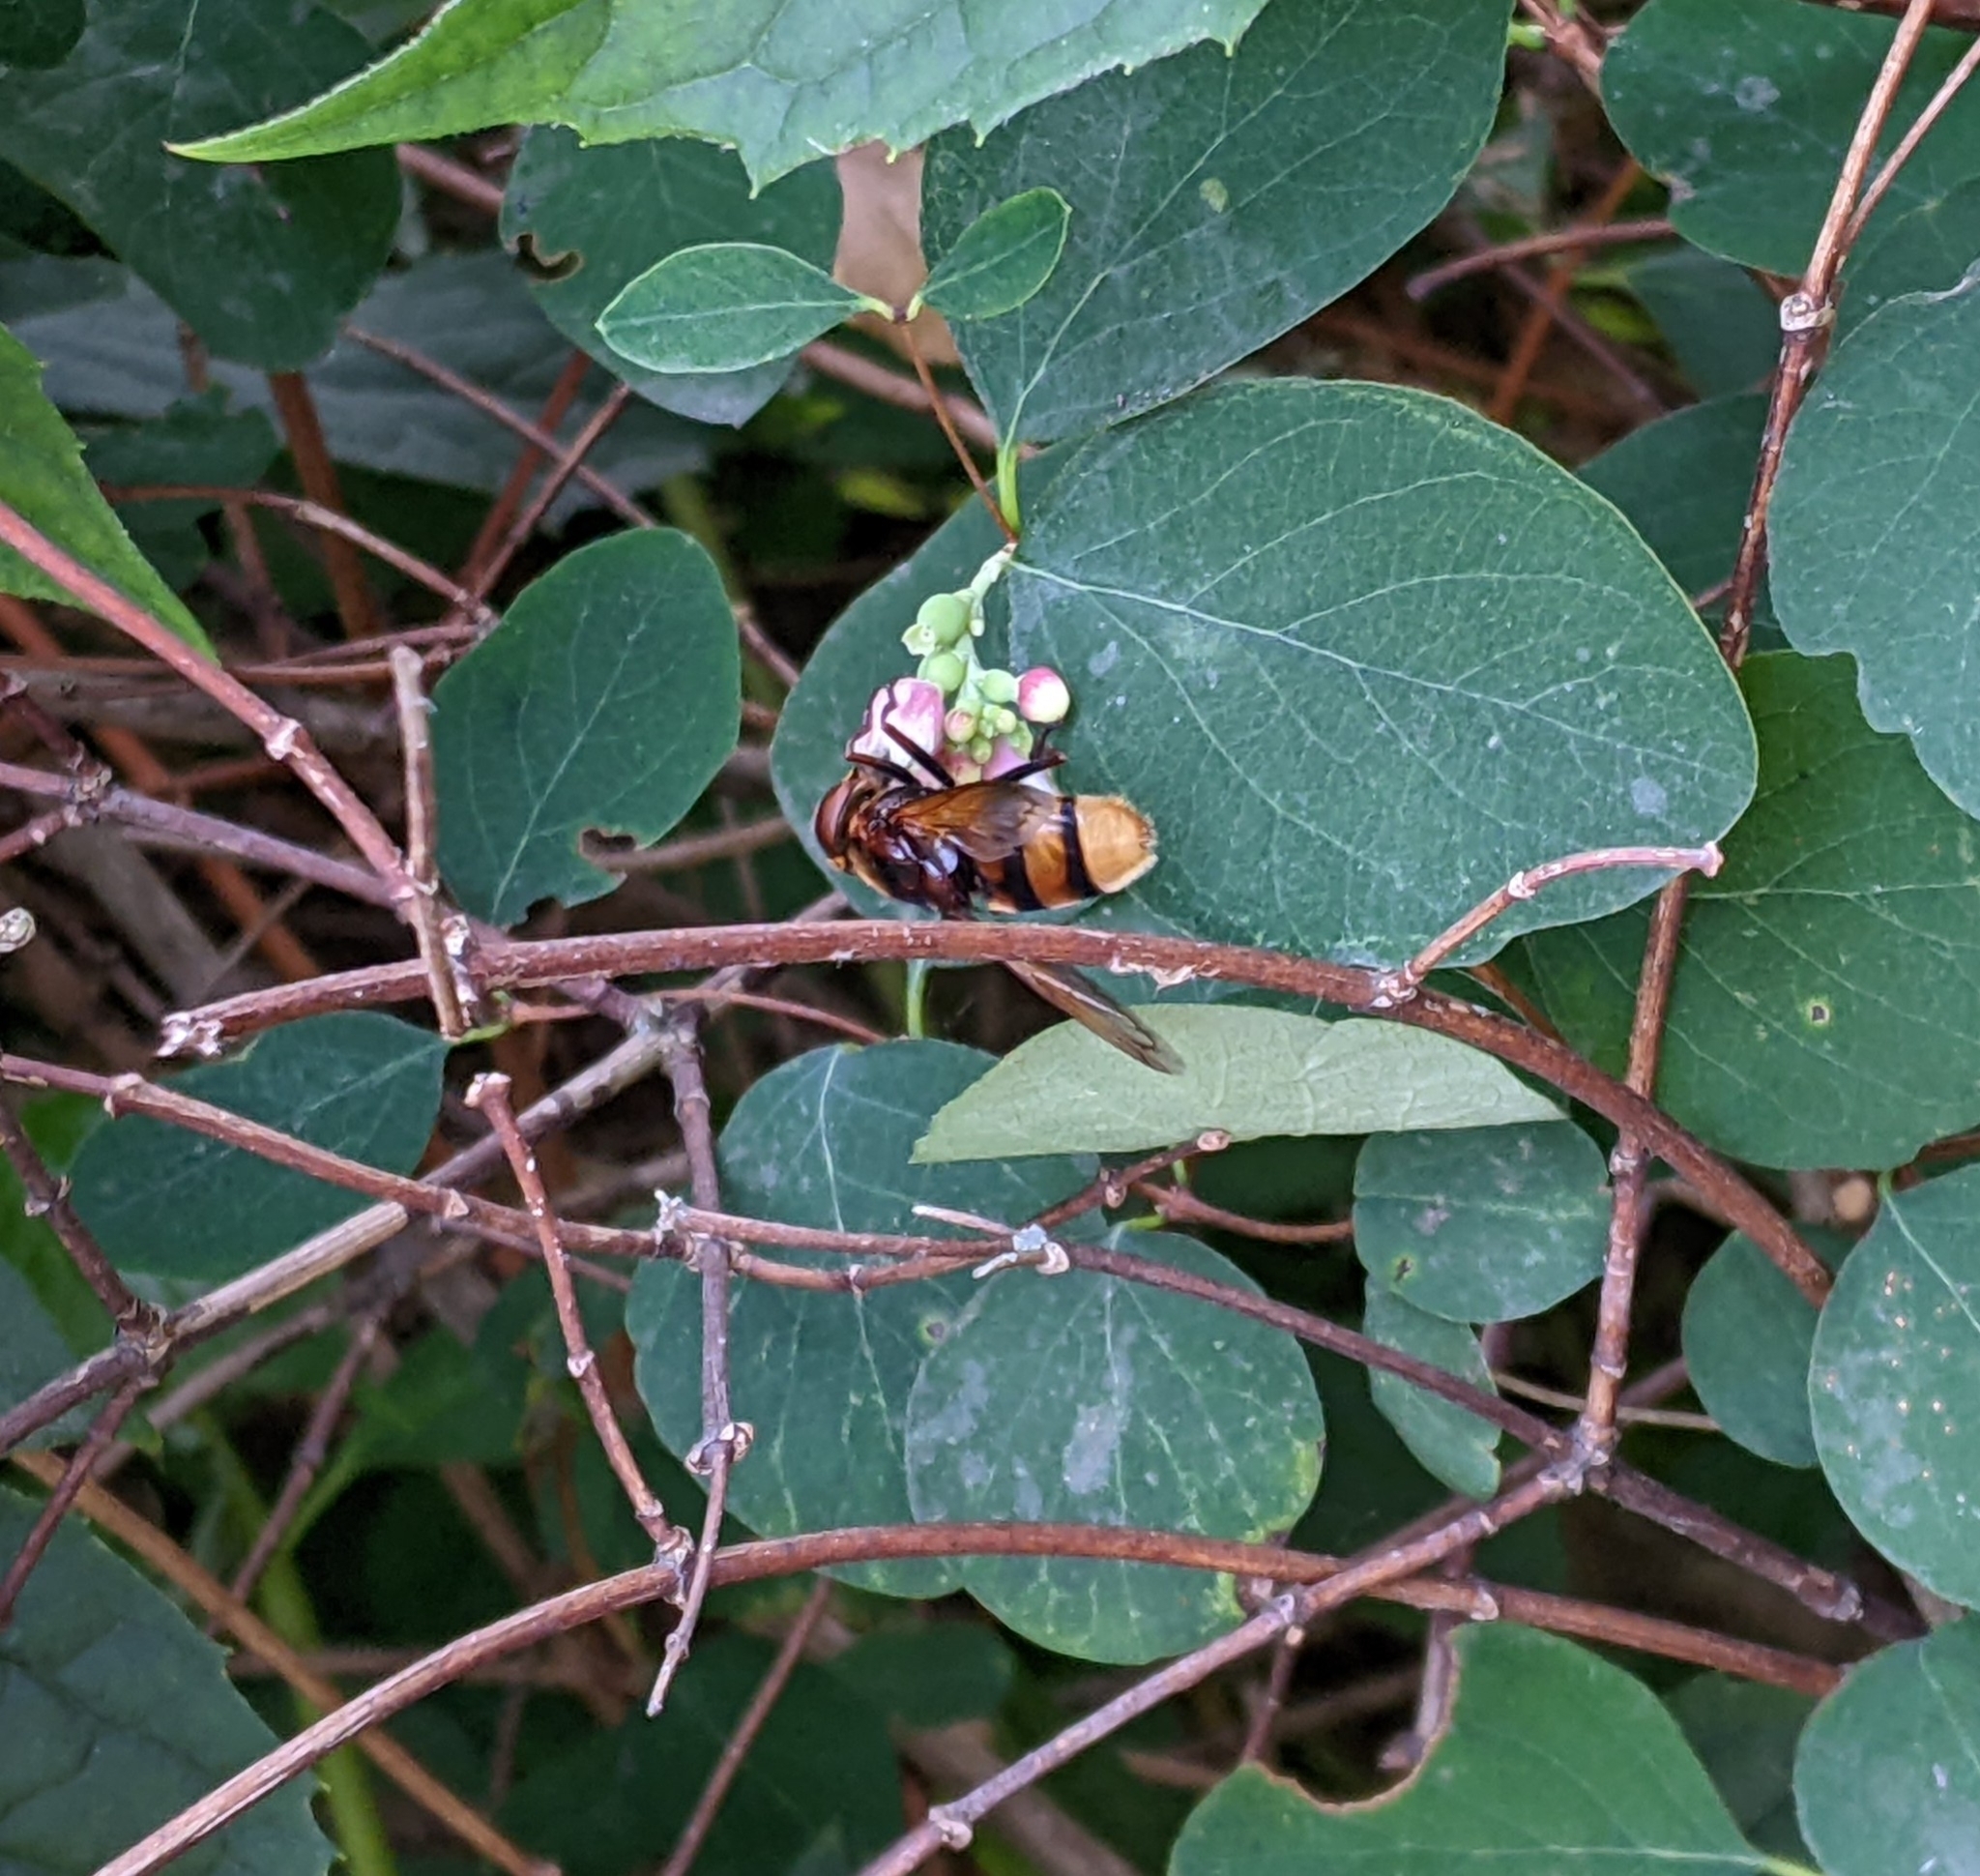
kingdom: Animalia
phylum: Arthropoda
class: Insecta
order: Diptera
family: Syrphidae
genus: Volucella
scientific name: Volucella zonaria
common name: Hornet hoverfly
